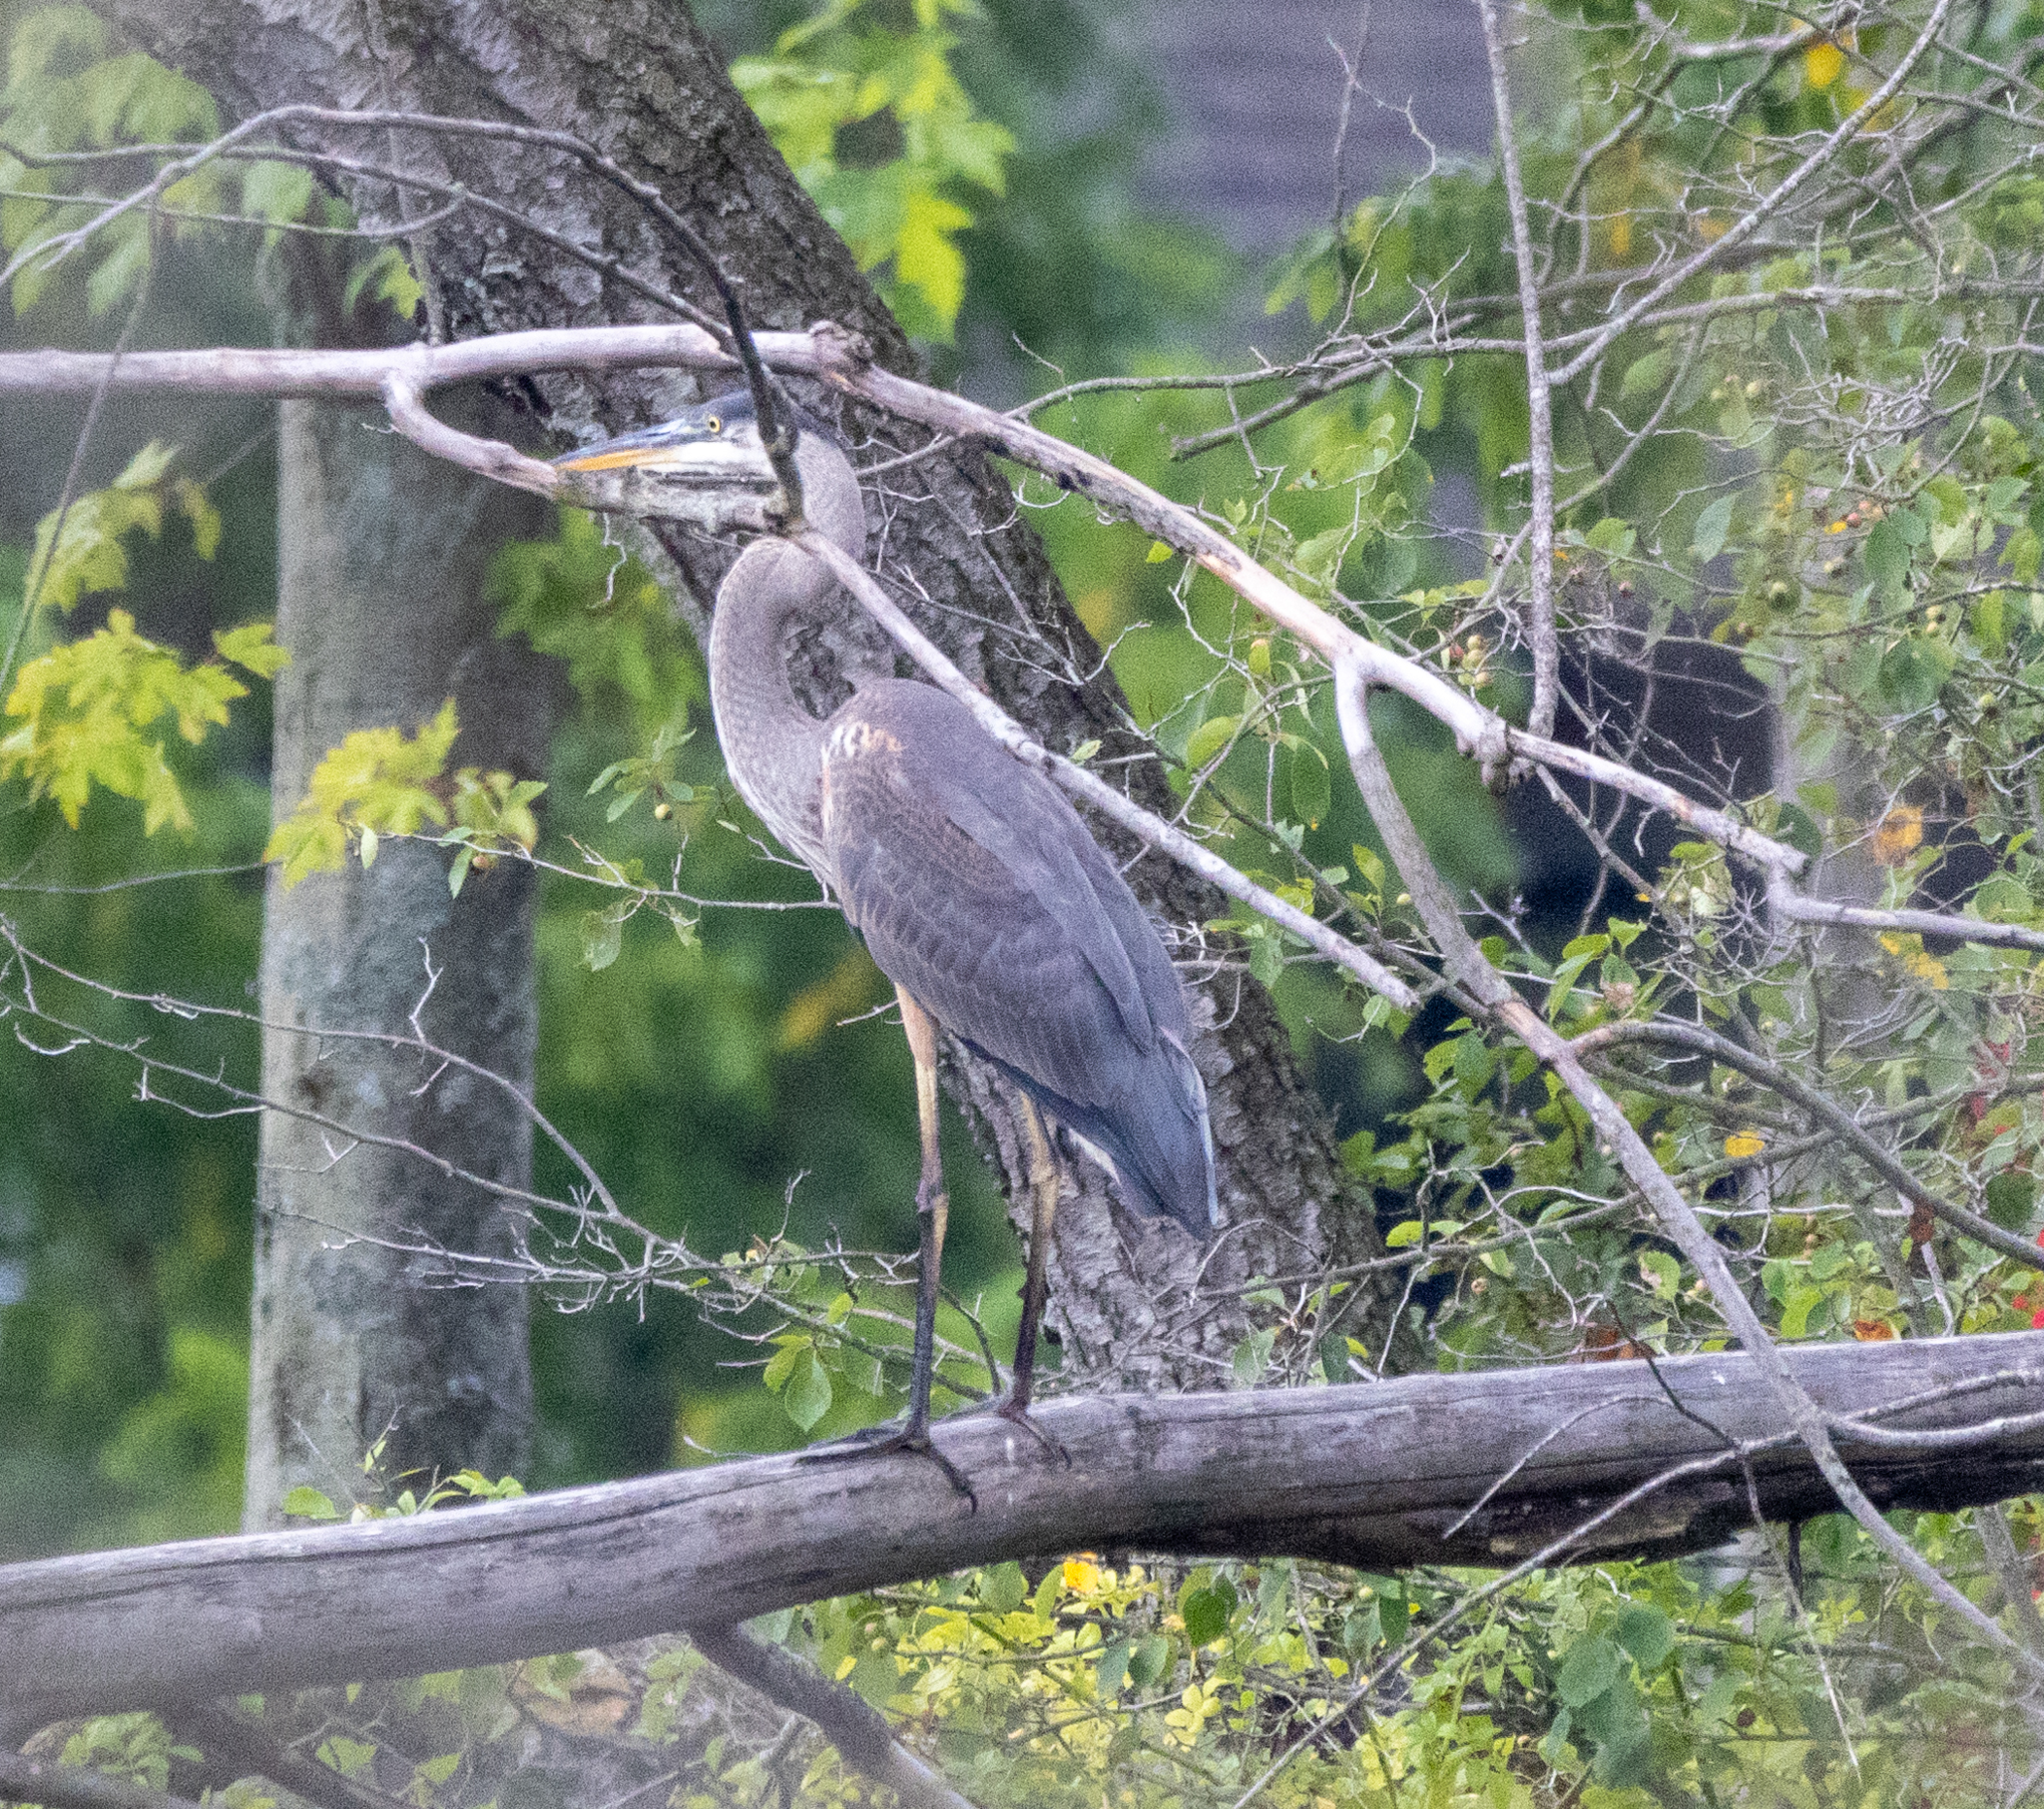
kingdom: Animalia
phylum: Chordata
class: Aves
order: Pelecaniformes
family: Ardeidae
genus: Ardea
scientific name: Ardea herodias
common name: Great blue heron
